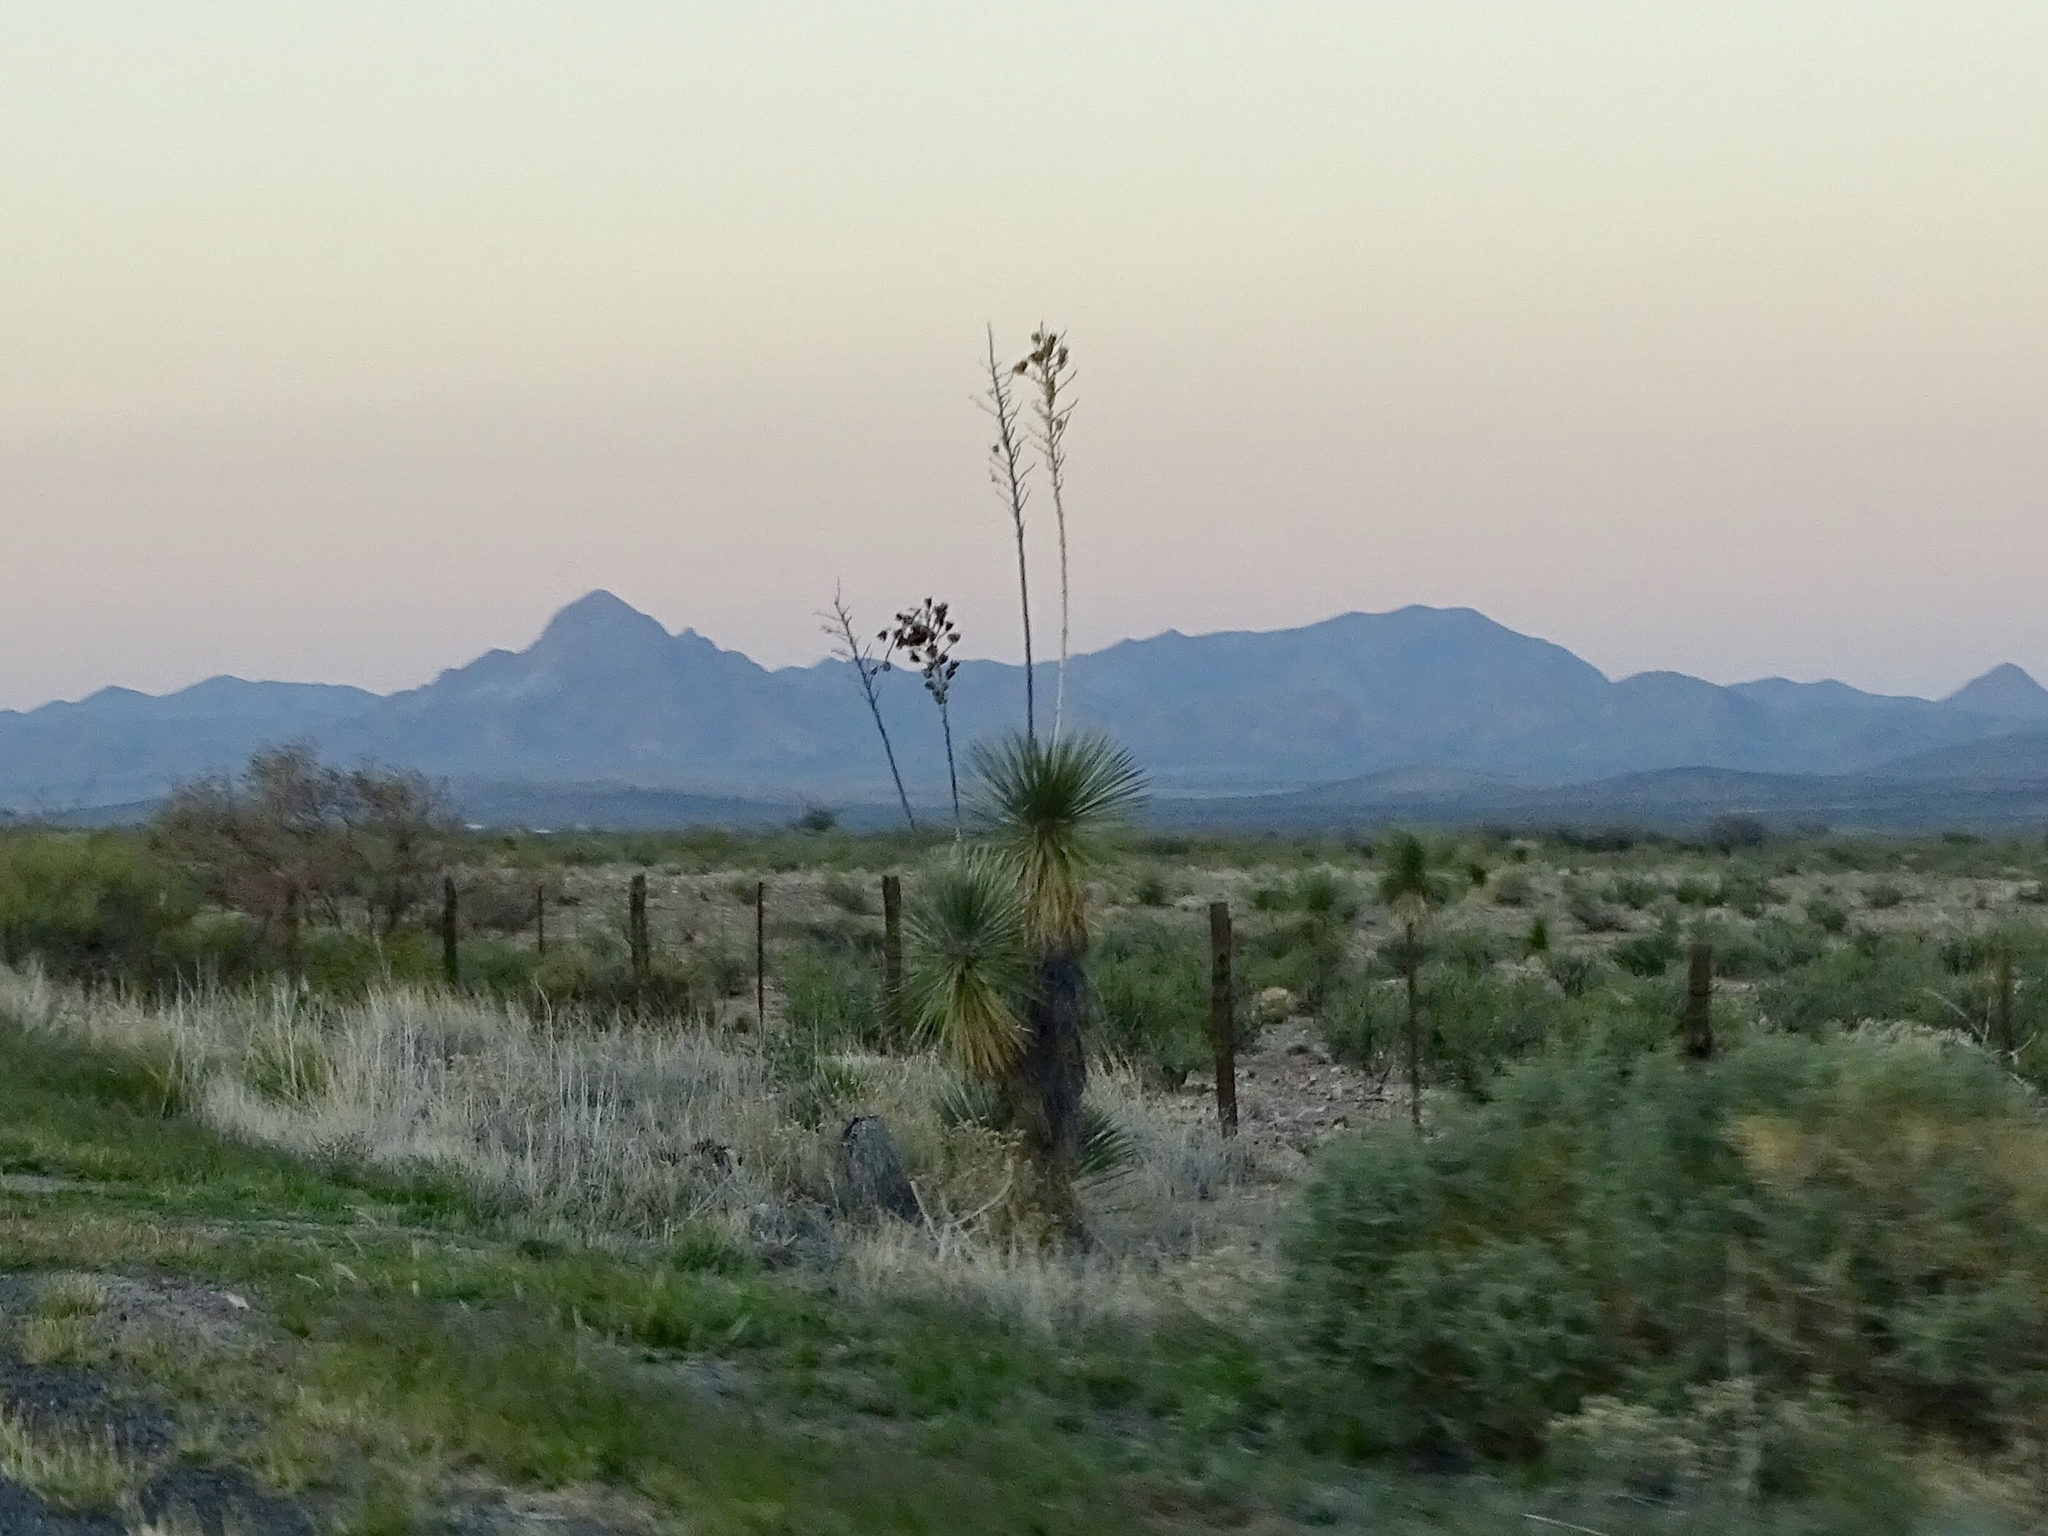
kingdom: Plantae
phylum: Tracheophyta
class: Liliopsida
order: Asparagales
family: Asparagaceae
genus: Yucca
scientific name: Yucca elata
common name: Palmella
